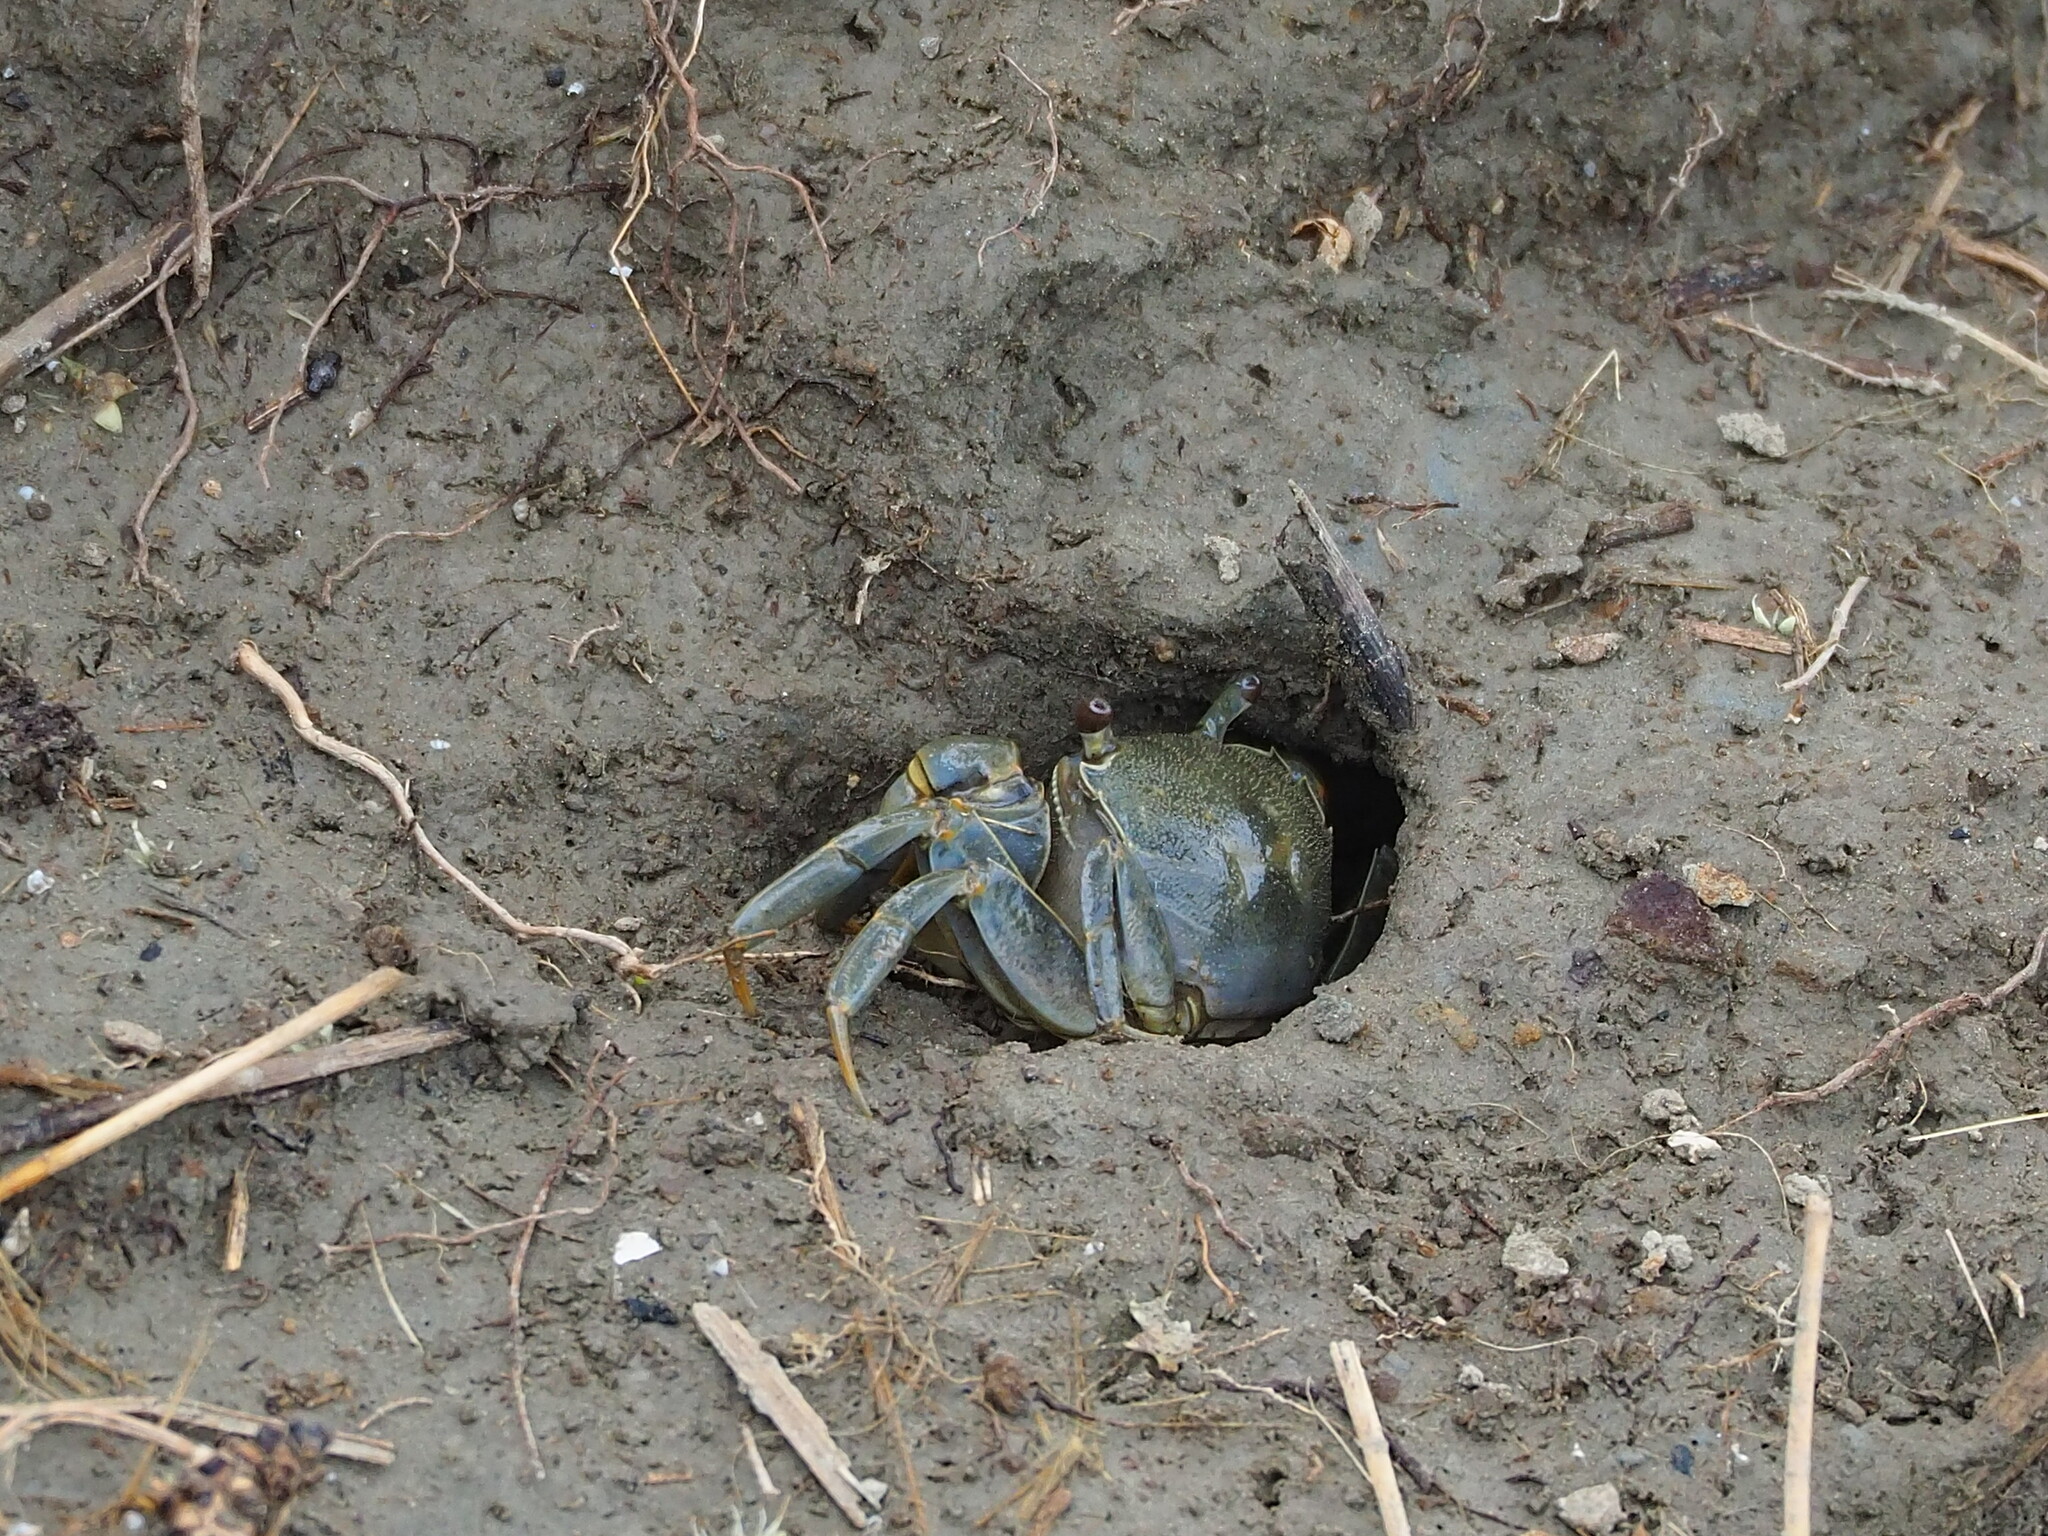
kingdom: Animalia
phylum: Arthropoda
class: Malacostraca
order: Decapoda
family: Varunidae
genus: Helice
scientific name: Helice formosensis
